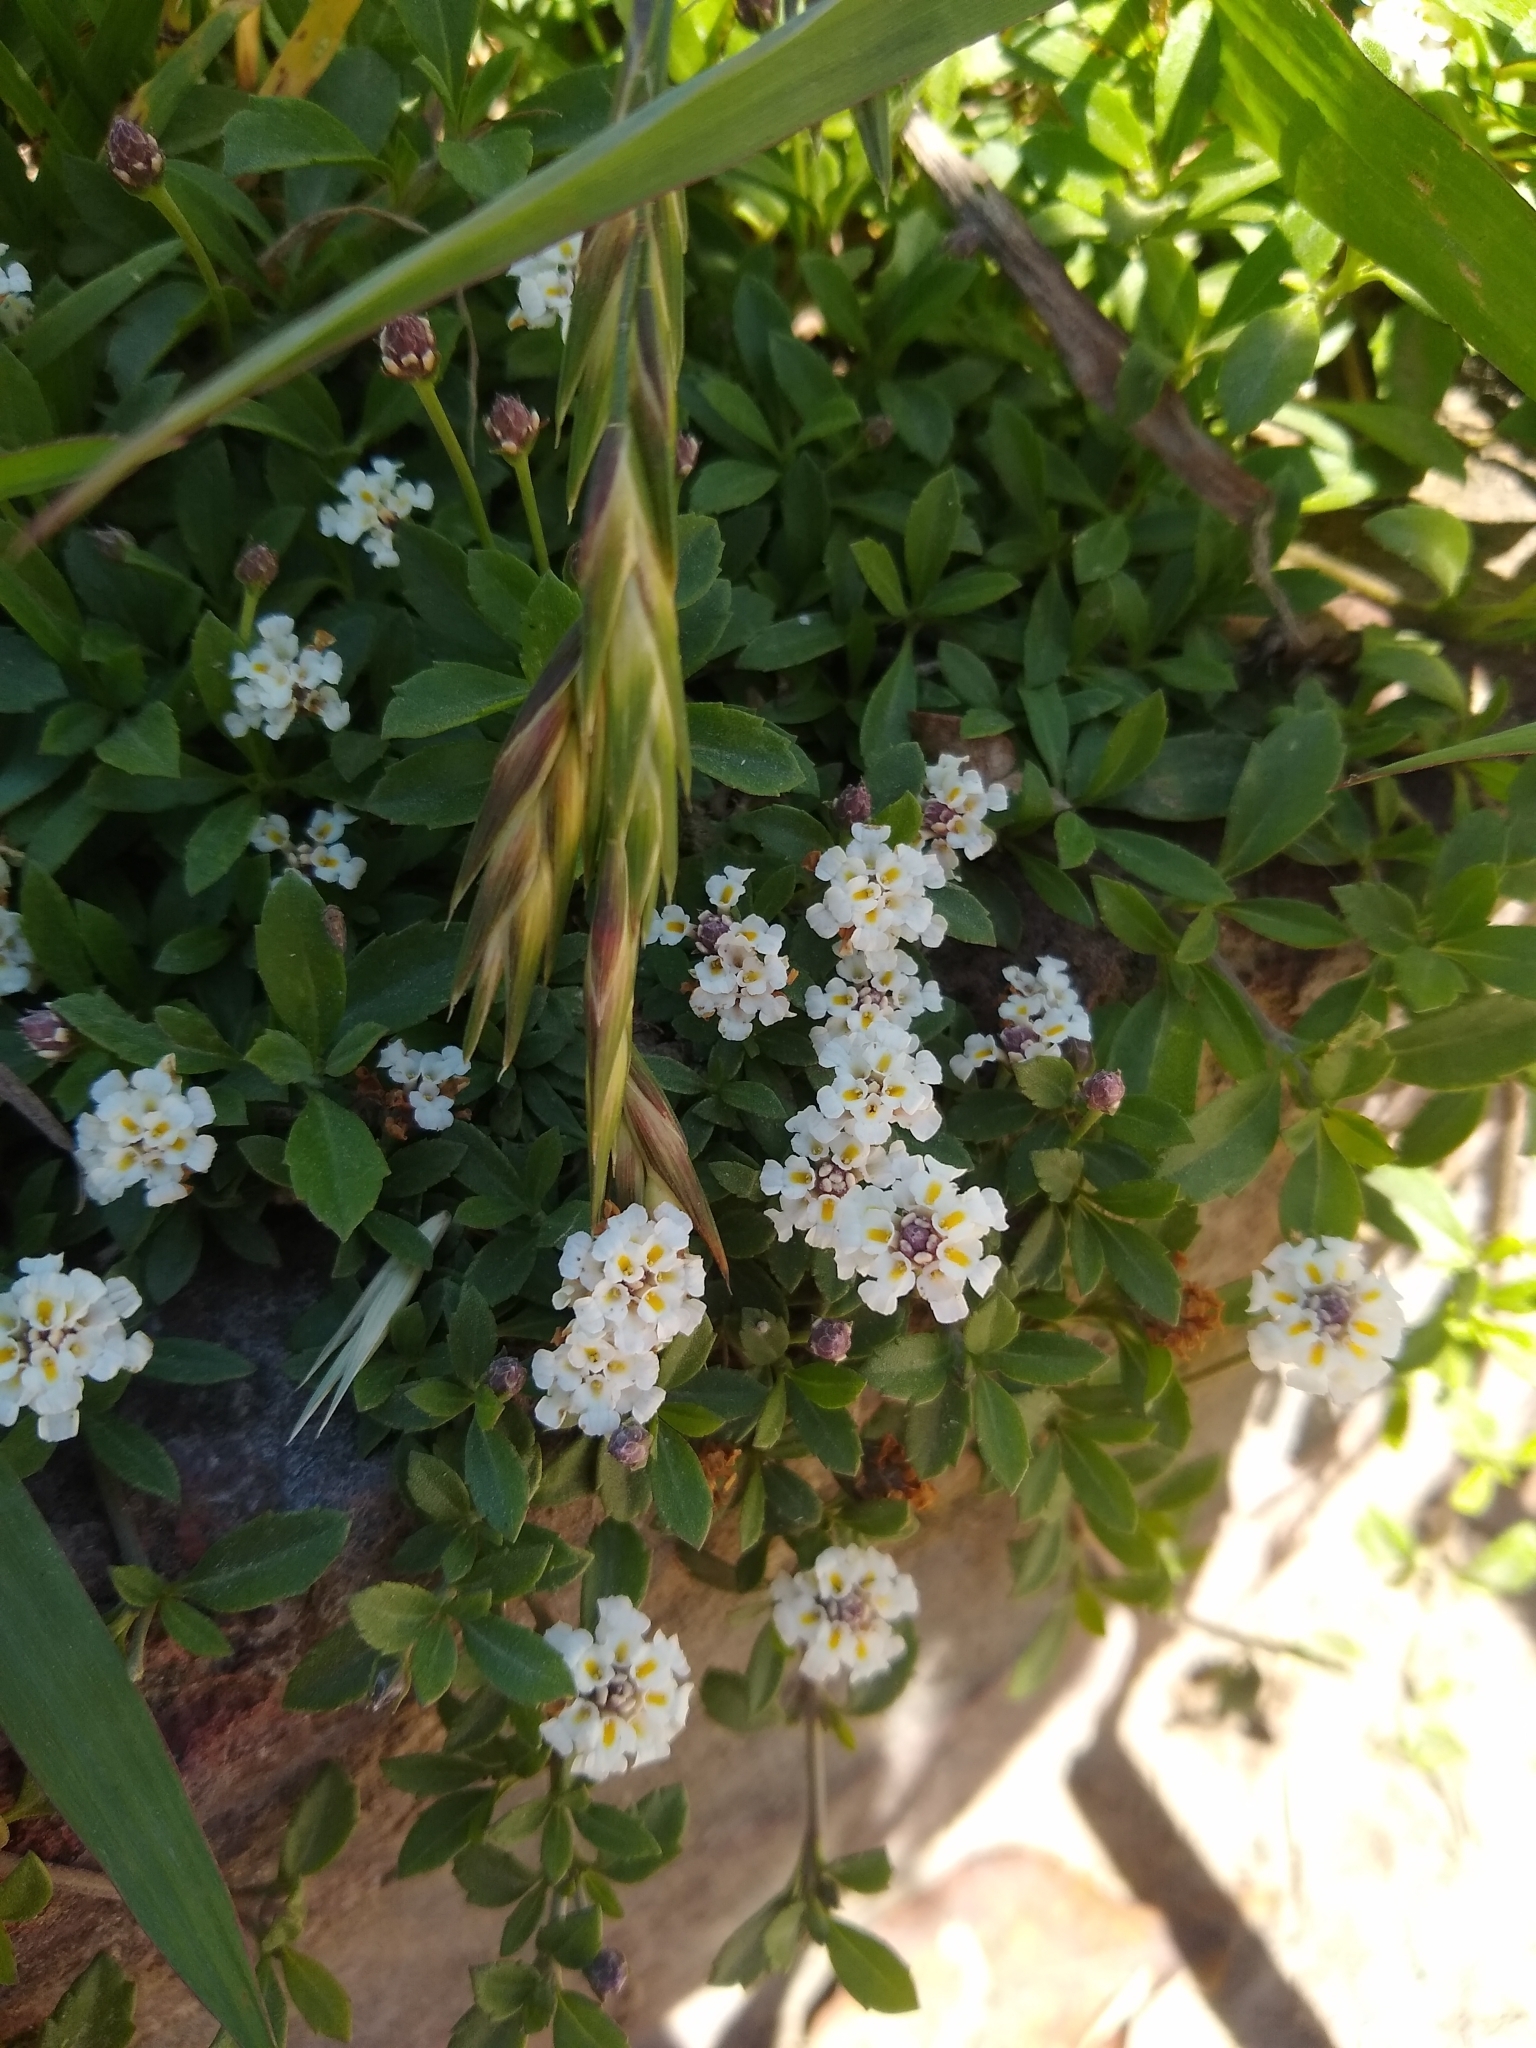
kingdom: Plantae
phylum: Tracheophyta
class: Magnoliopsida
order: Lamiales
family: Verbenaceae
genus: Phyla
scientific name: Phyla nodiflora
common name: Frogfruit
